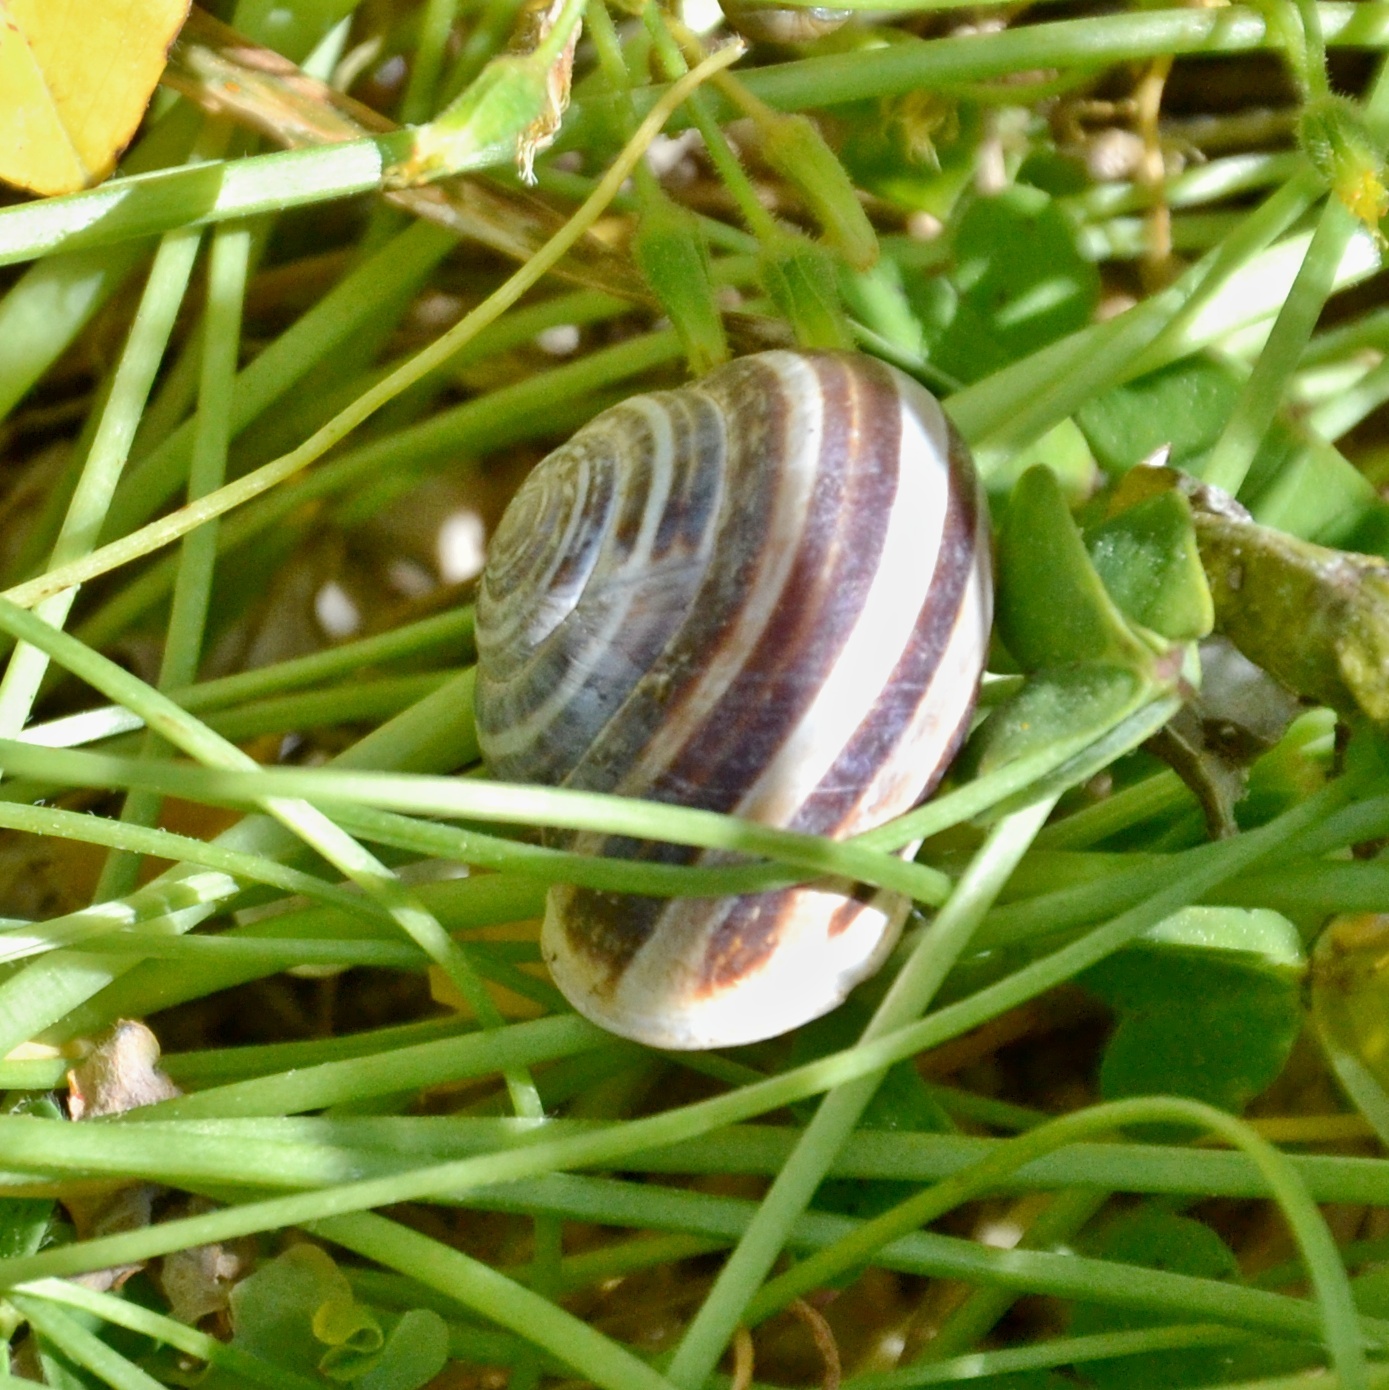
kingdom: Animalia
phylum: Mollusca
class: Gastropoda
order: Stylommatophora
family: Helicidae
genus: Eobania
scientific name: Eobania vermiculata
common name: Chocolateband snail
